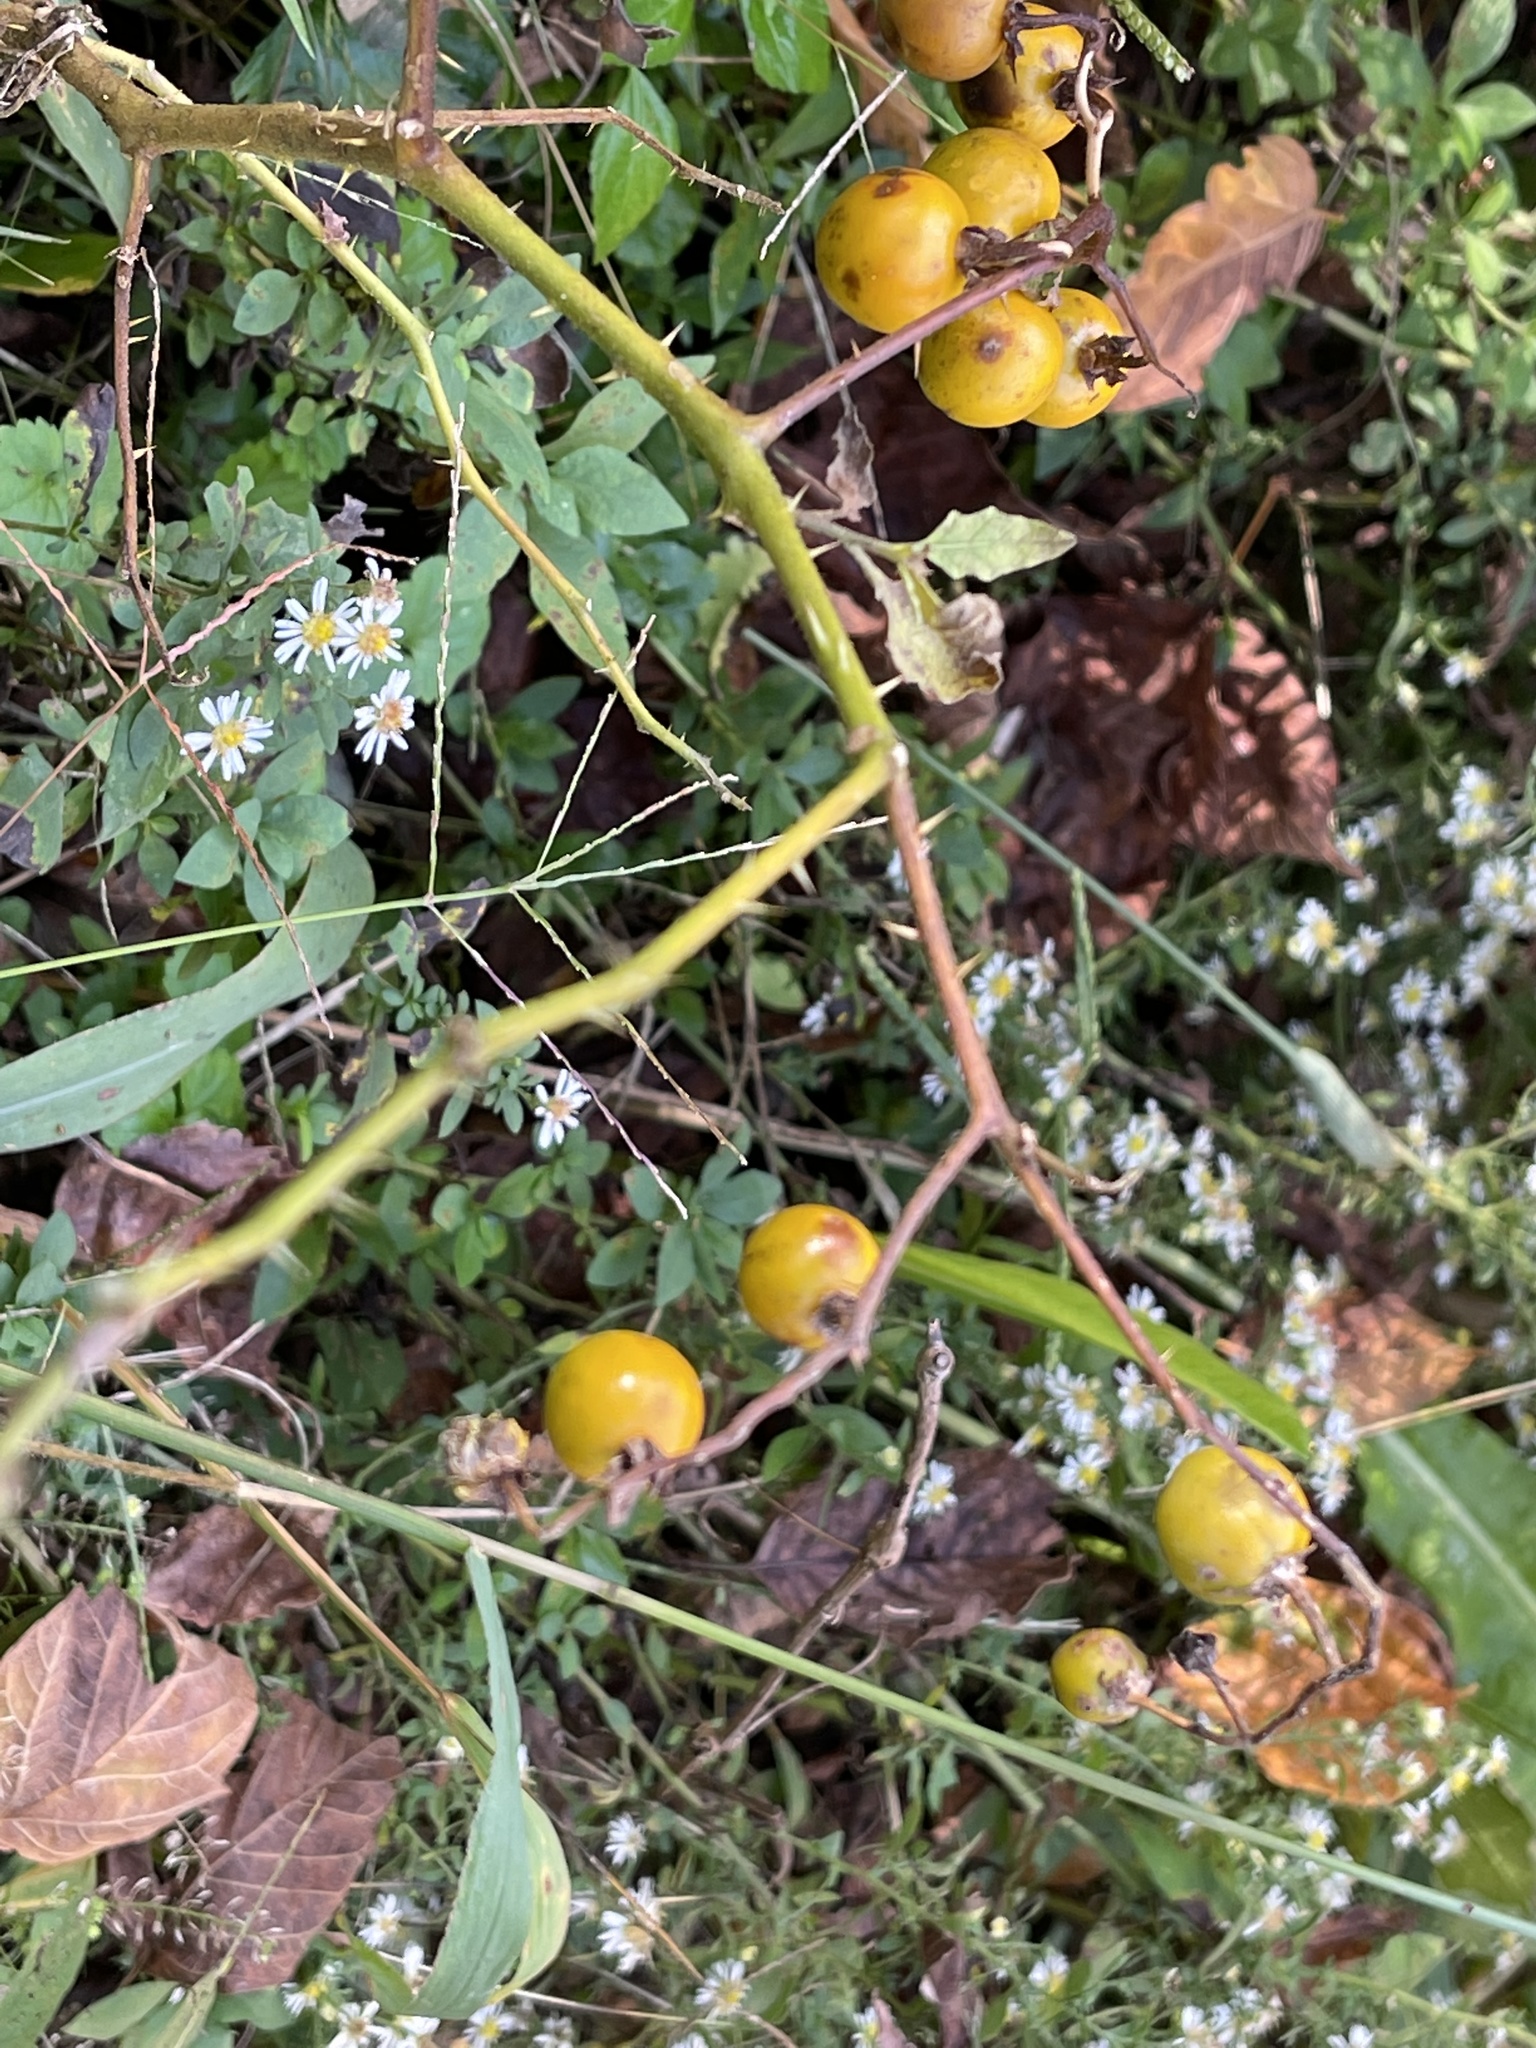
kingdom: Plantae
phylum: Tracheophyta
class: Magnoliopsida
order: Solanales
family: Solanaceae
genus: Solanum
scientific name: Solanum carolinense
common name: Horse-nettle
